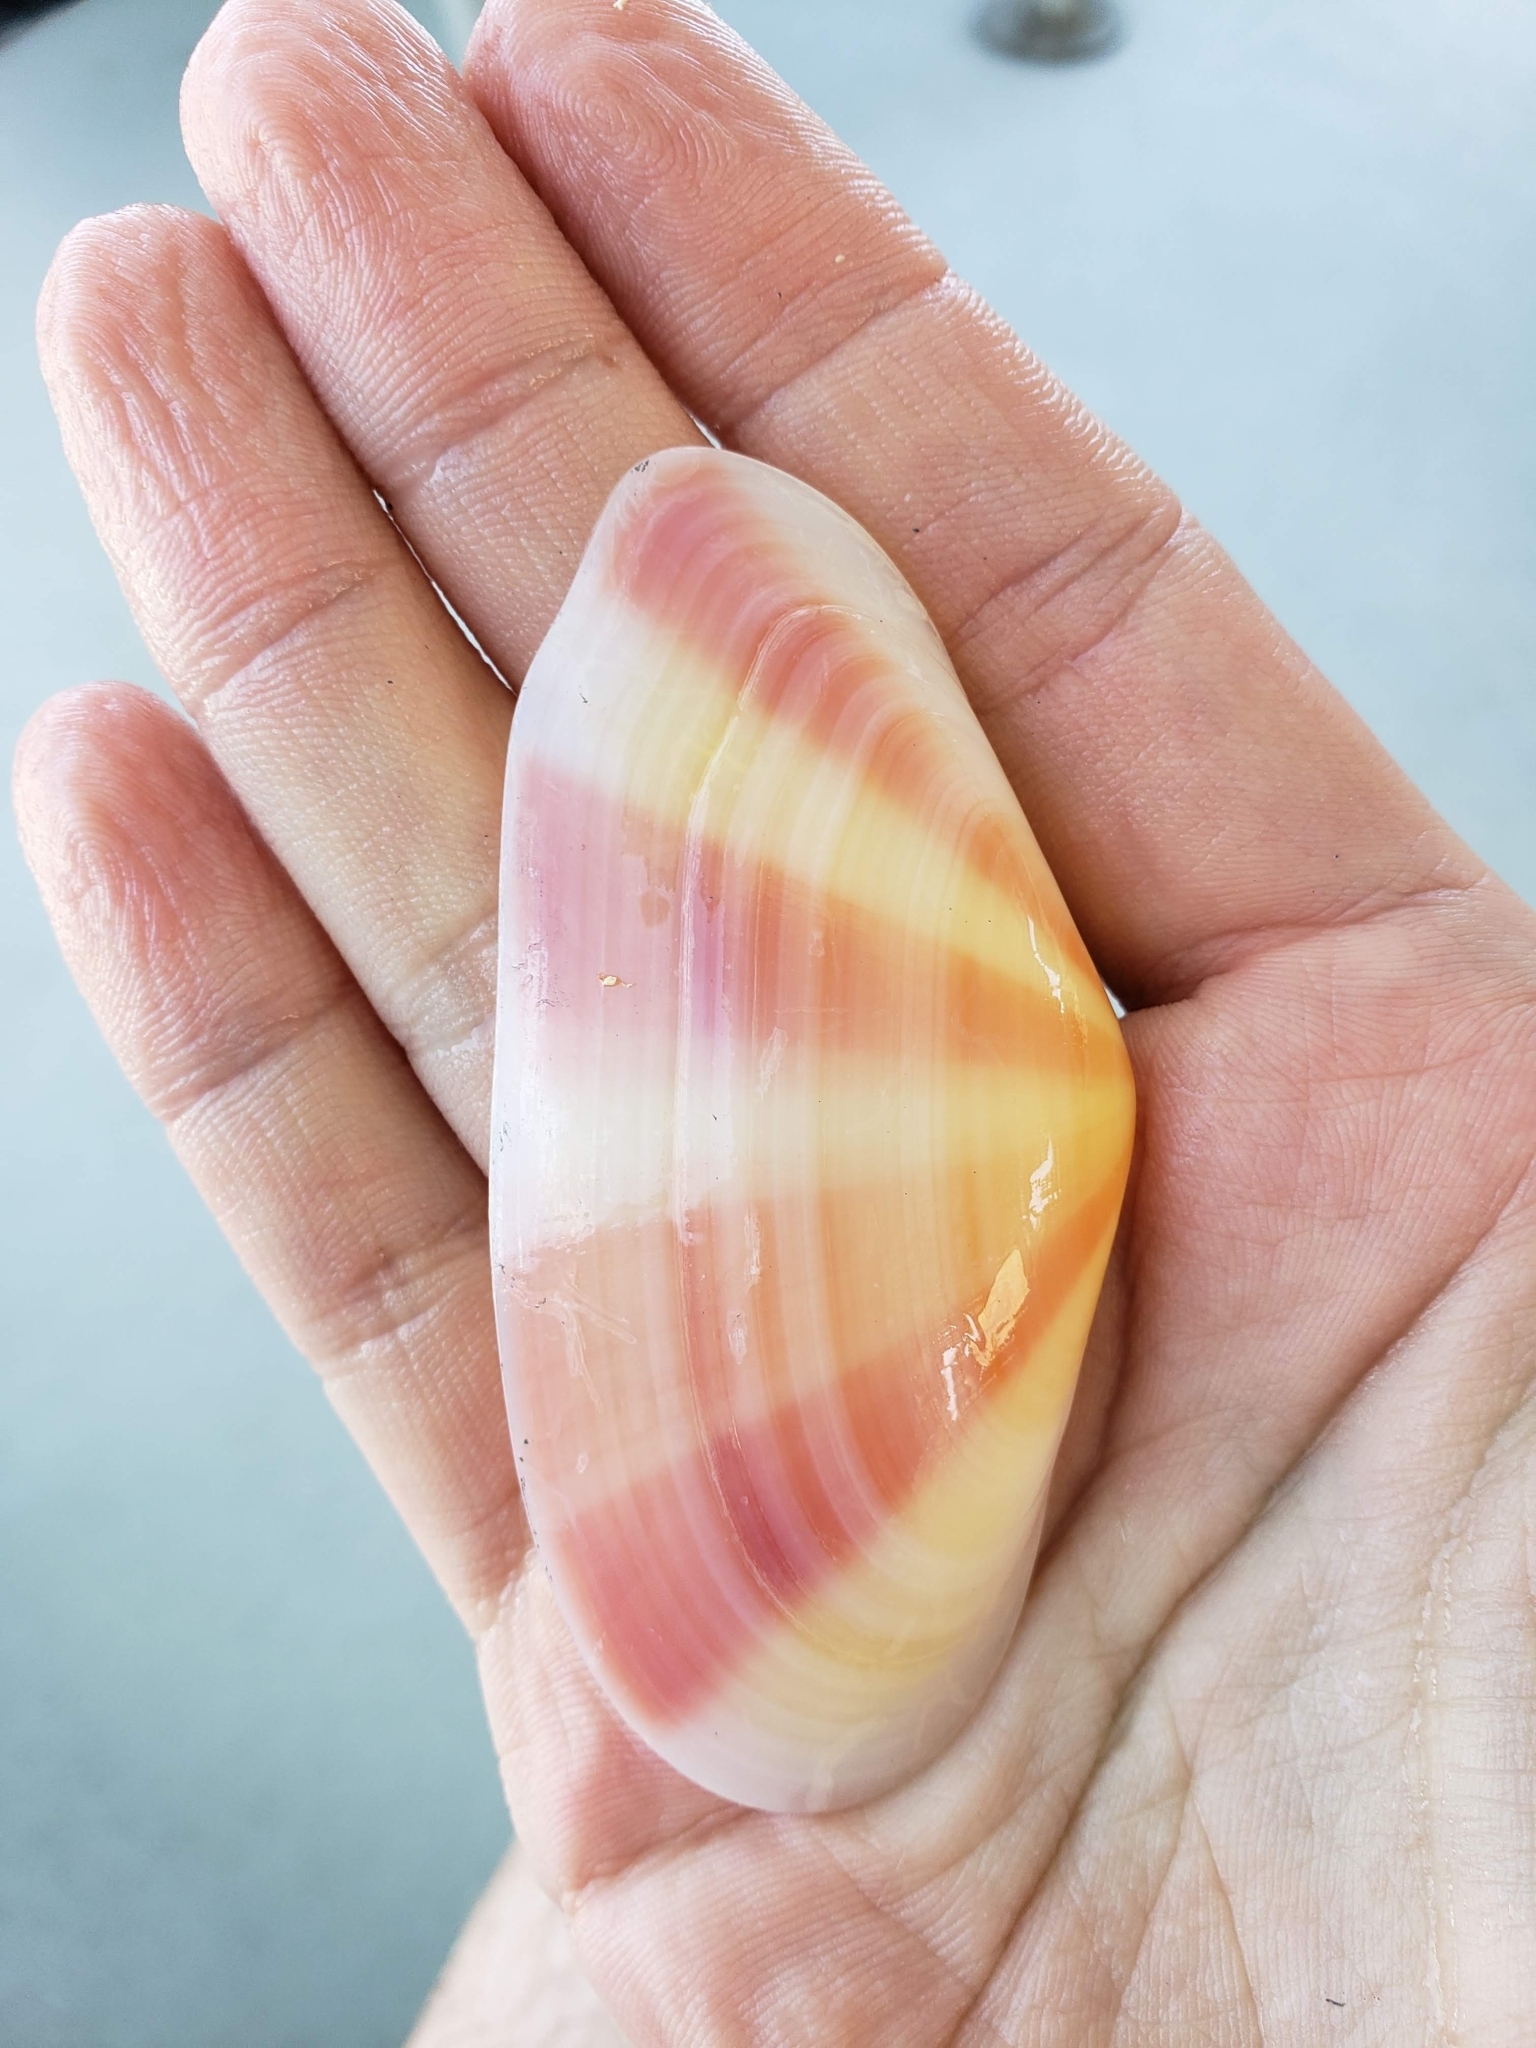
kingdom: Animalia
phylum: Mollusca
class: Bivalvia
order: Cardiida
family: Tellinidae
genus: Tellina
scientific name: Tellina radiata
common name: Sunrise tellin
